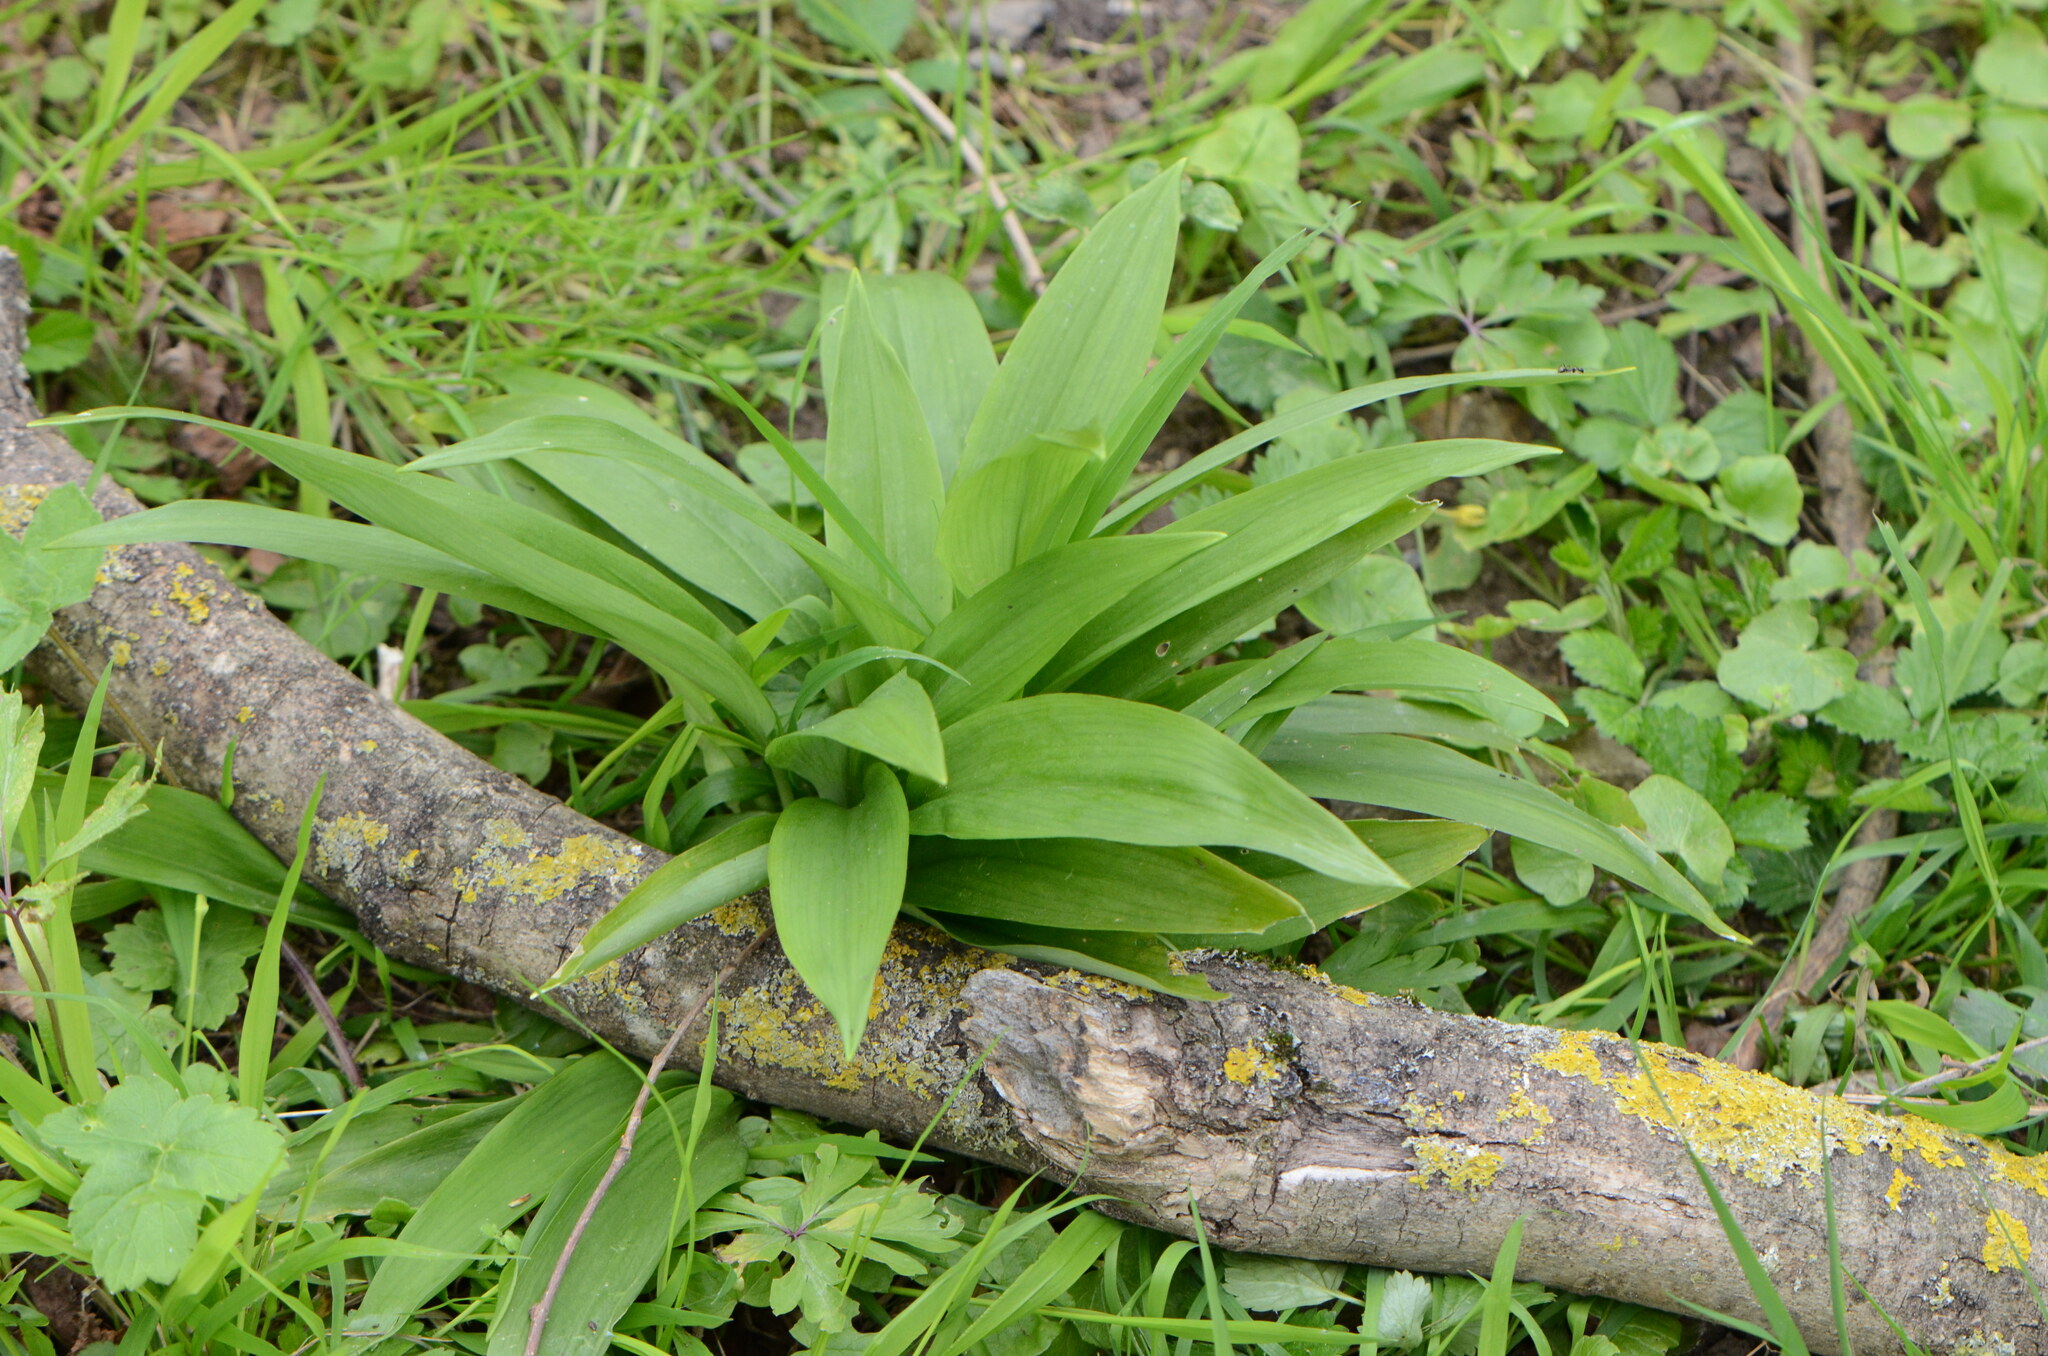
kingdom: Plantae
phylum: Tracheophyta
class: Liliopsida
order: Asparagales
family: Amaryllidaceae
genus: Allium
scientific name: Allium ursinum
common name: Ramsons
